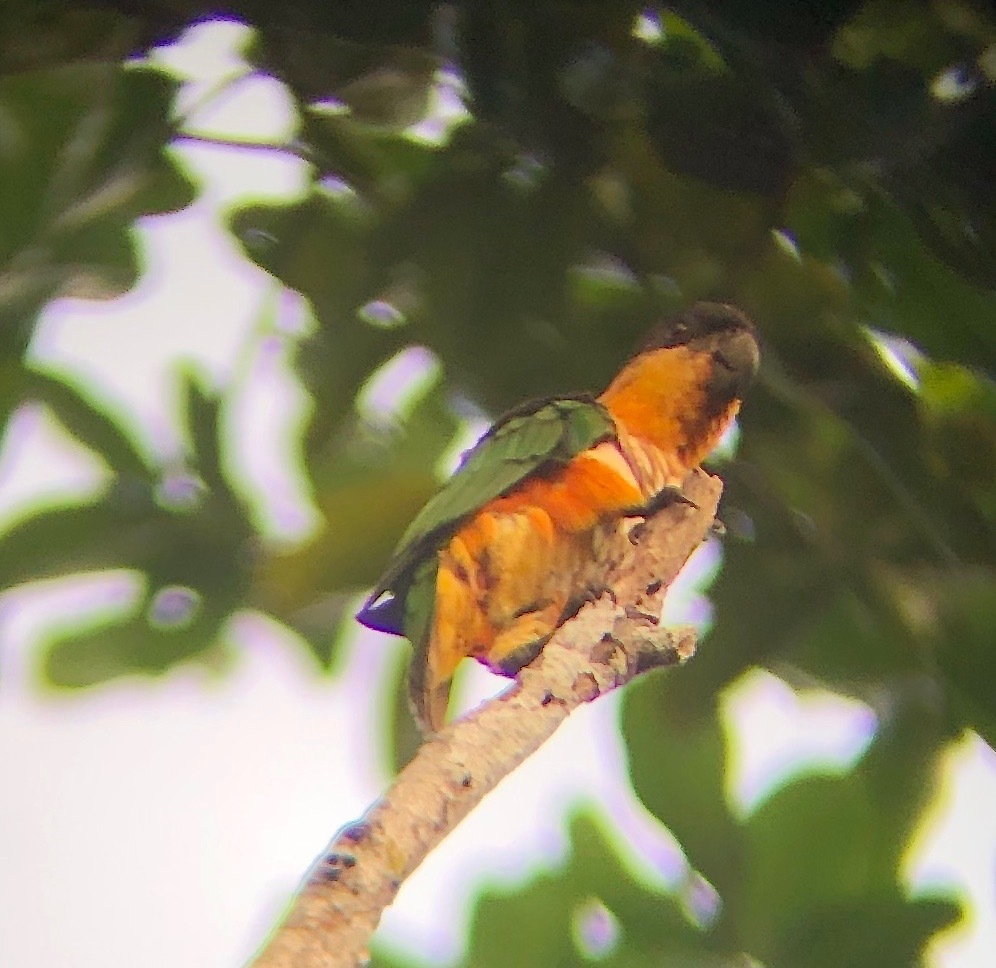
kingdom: Animalia
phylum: Chordata
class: Aves
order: Psittaciformes
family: Psittacidae
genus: Pionites
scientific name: Pionites melanocephalus
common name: Black-headed parrot
